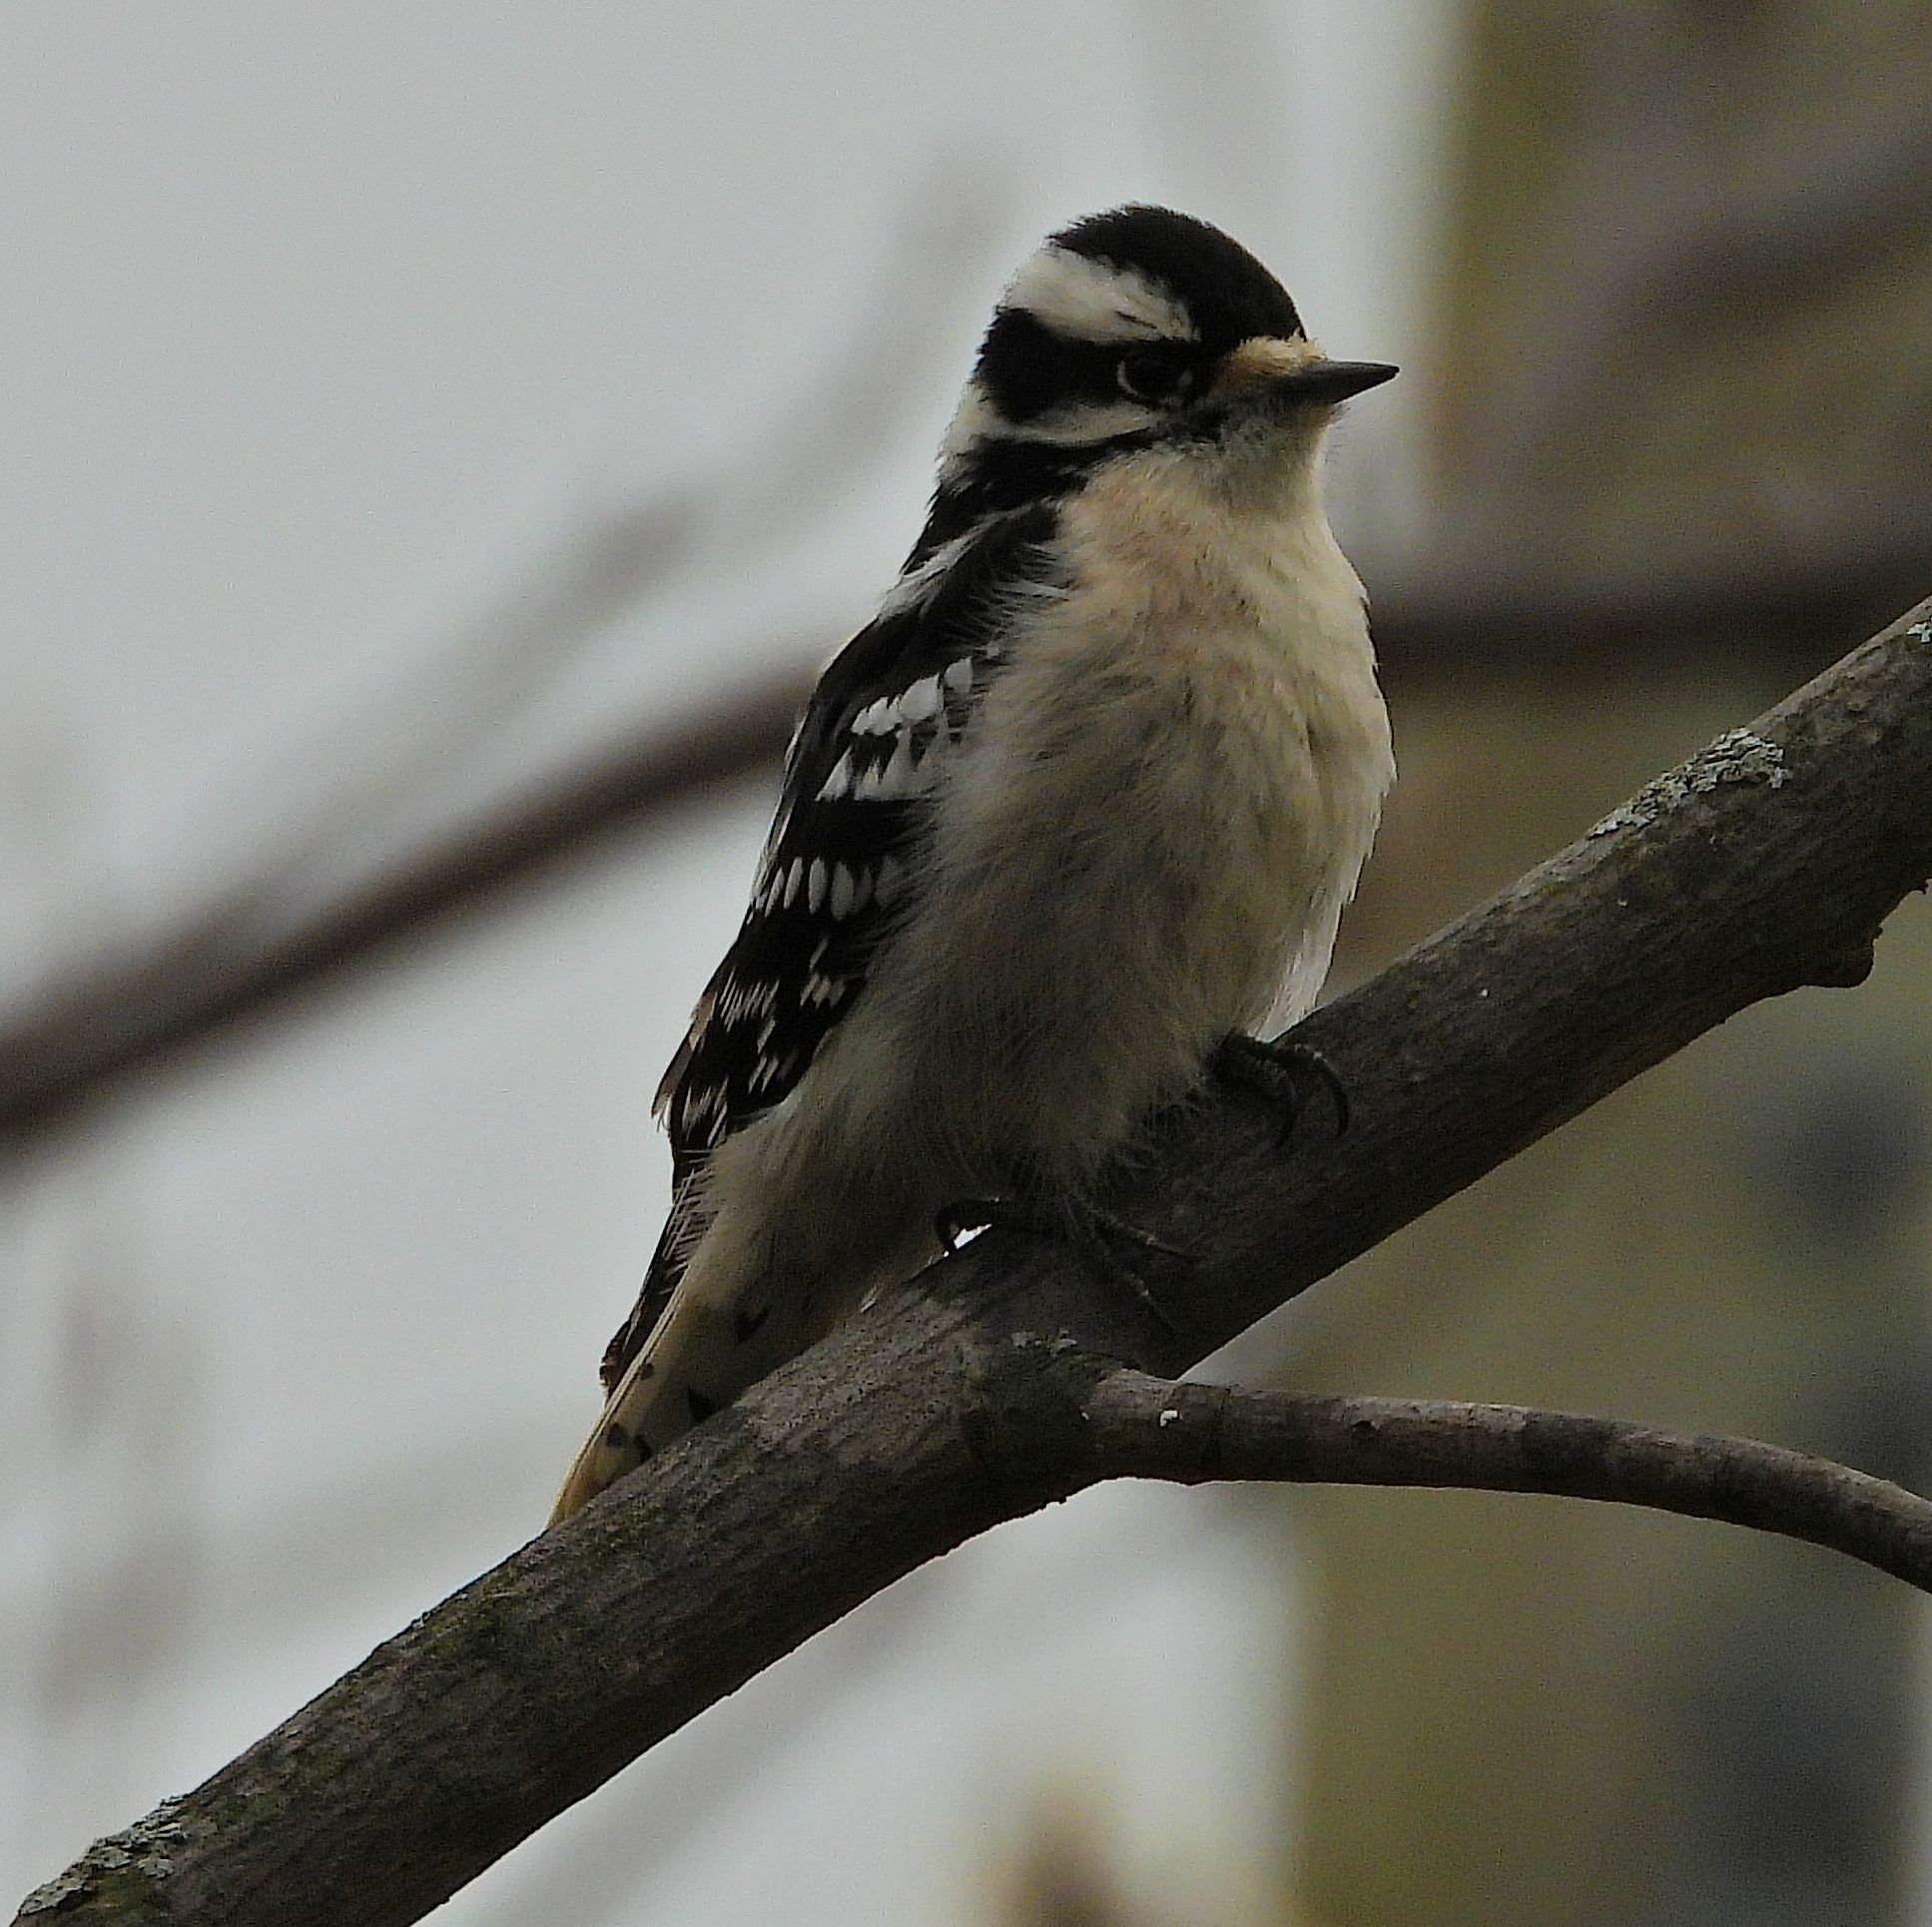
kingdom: Animalia
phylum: Chordata
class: Aves
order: Piciformes
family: Picidae
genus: Dryobates
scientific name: Dryobates pubescens
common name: Downy woodpecker
